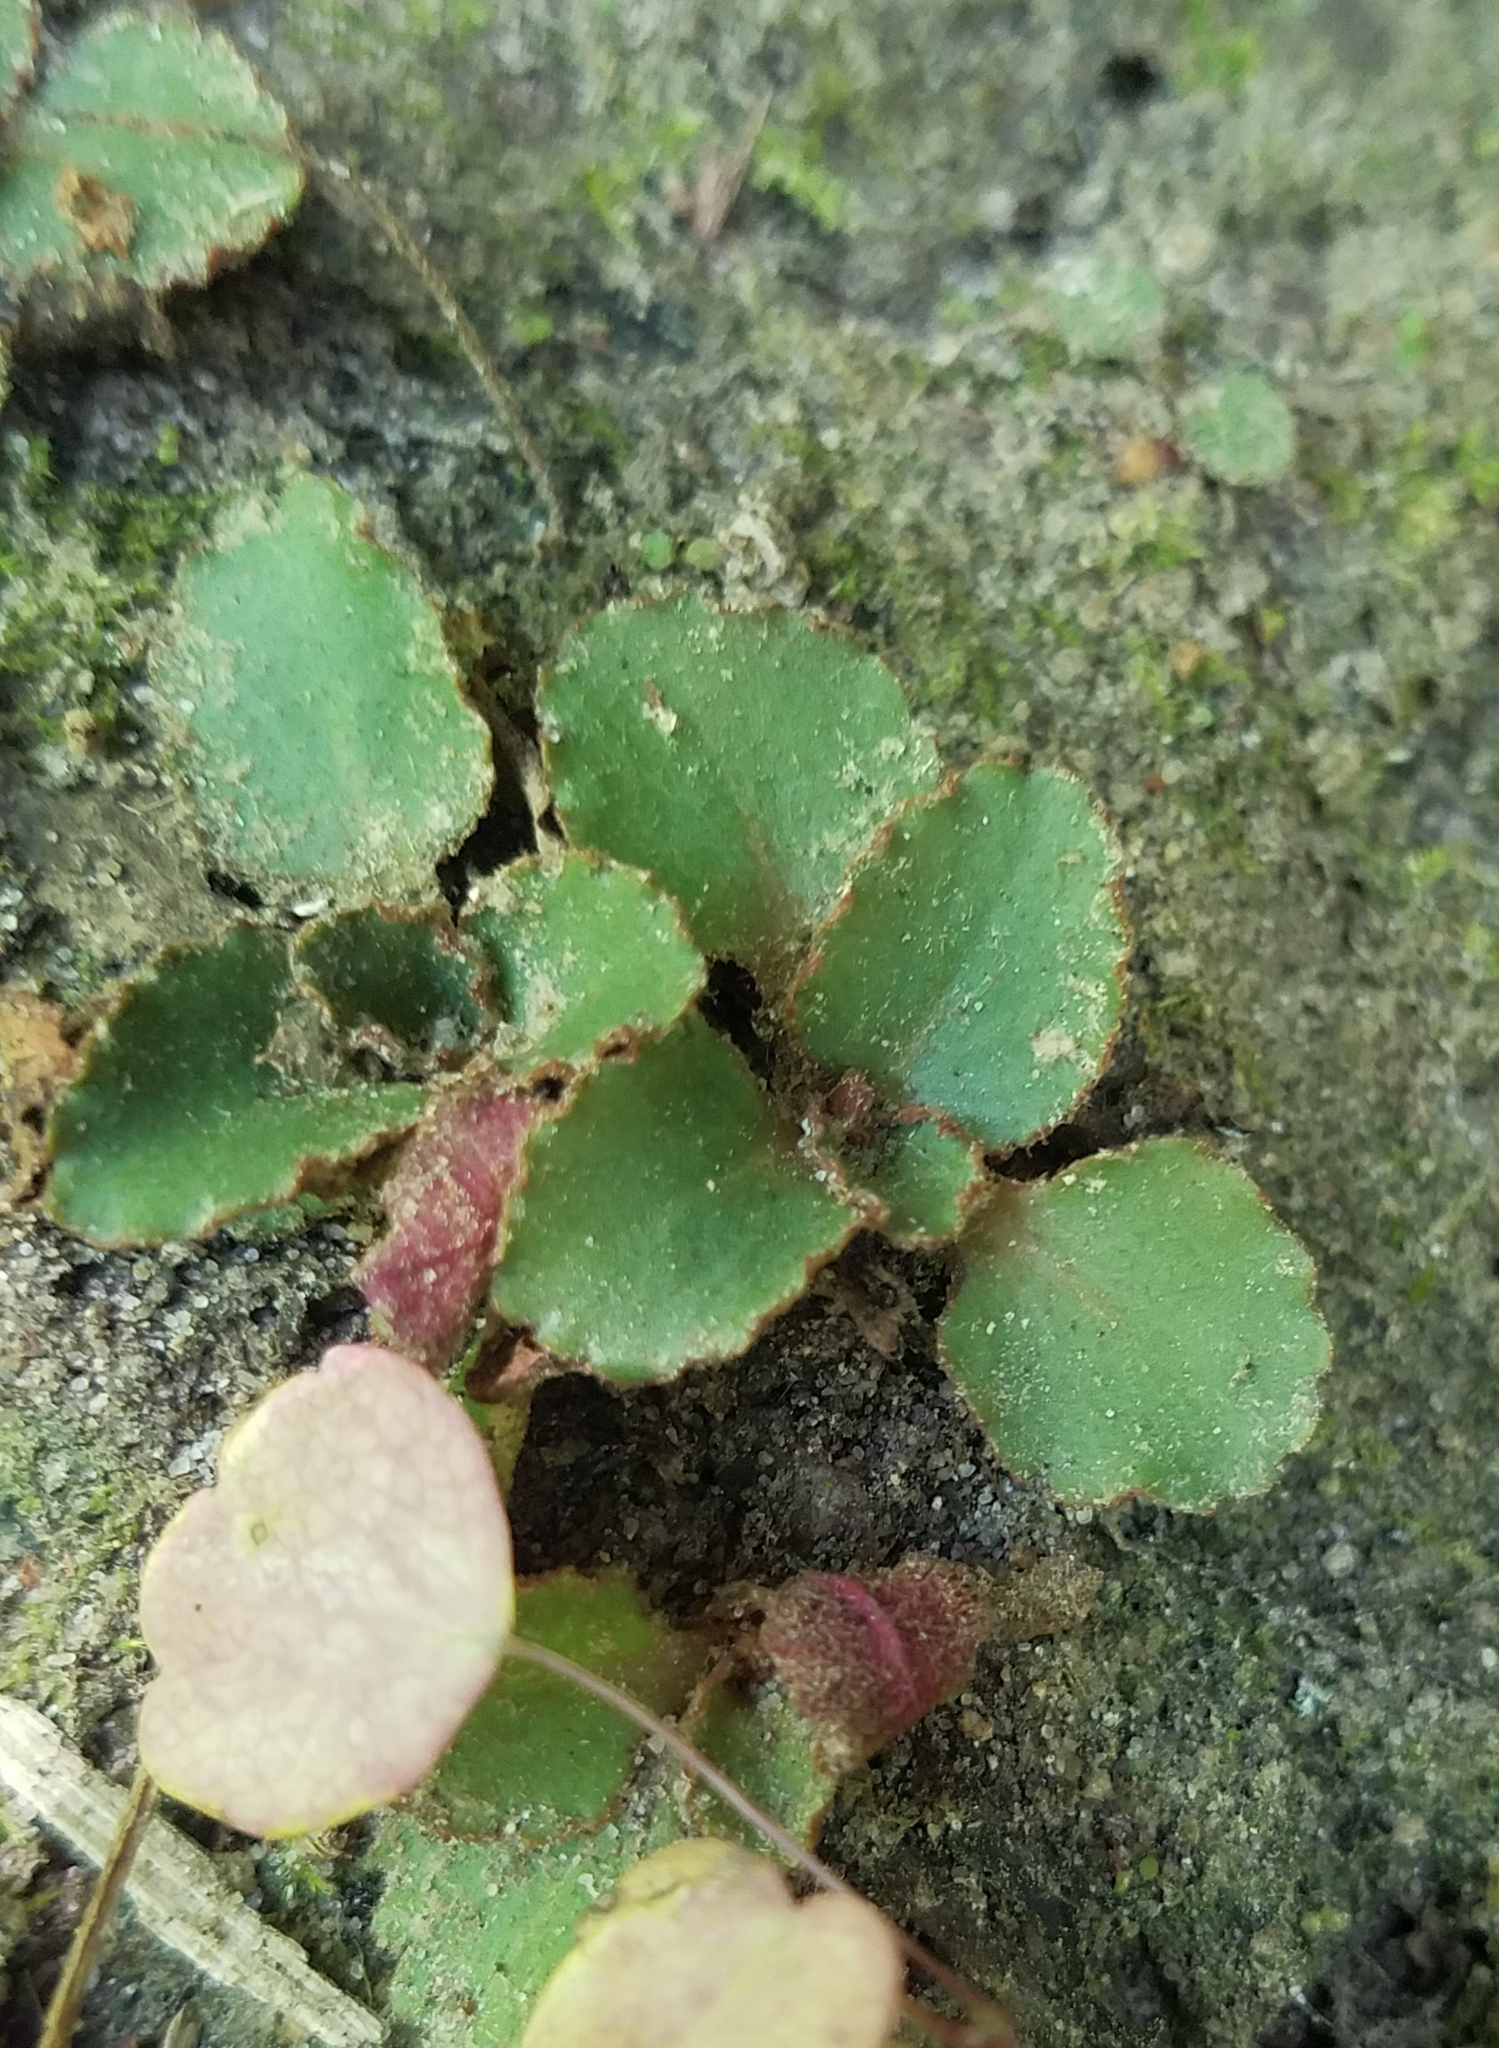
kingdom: Plantae
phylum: Tracheophyta
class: Magnoliopsida
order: Saxifragales
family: Saxifragaceae
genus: Micranthes
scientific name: Micranthes virginiensis
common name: Early saxifrage
